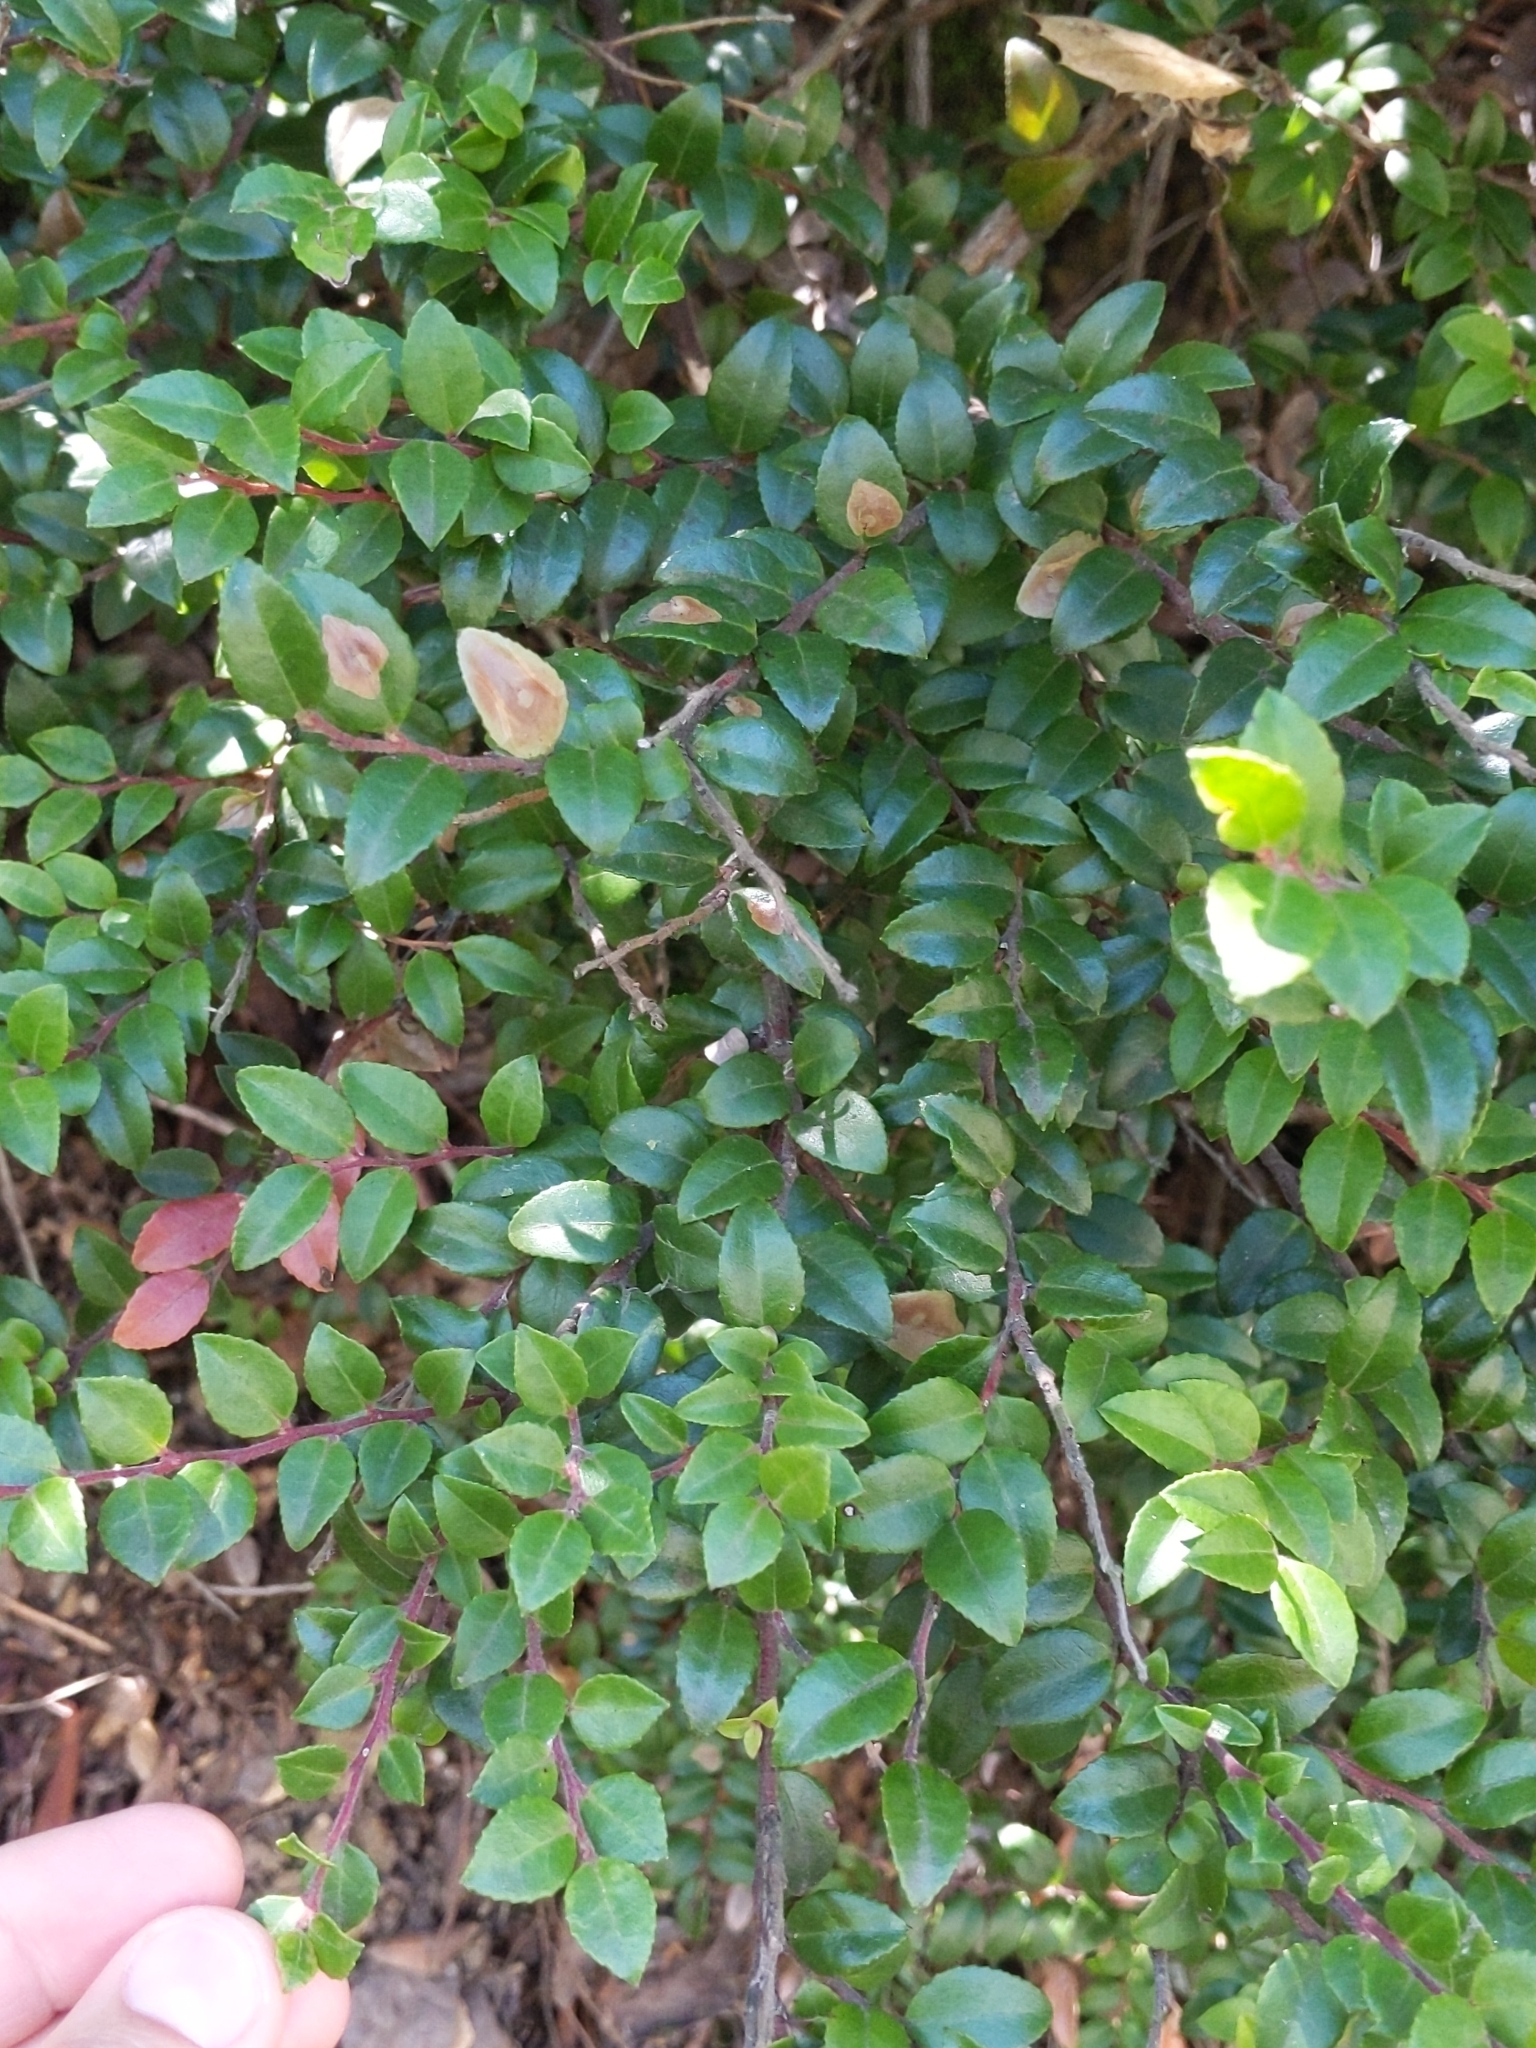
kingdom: Plantae
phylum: Tracheophyta
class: Magnoliopsida
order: Ericales
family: Ericaceae
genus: Vaccinium
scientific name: Vaccinium ovatum
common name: California-huckleberry
